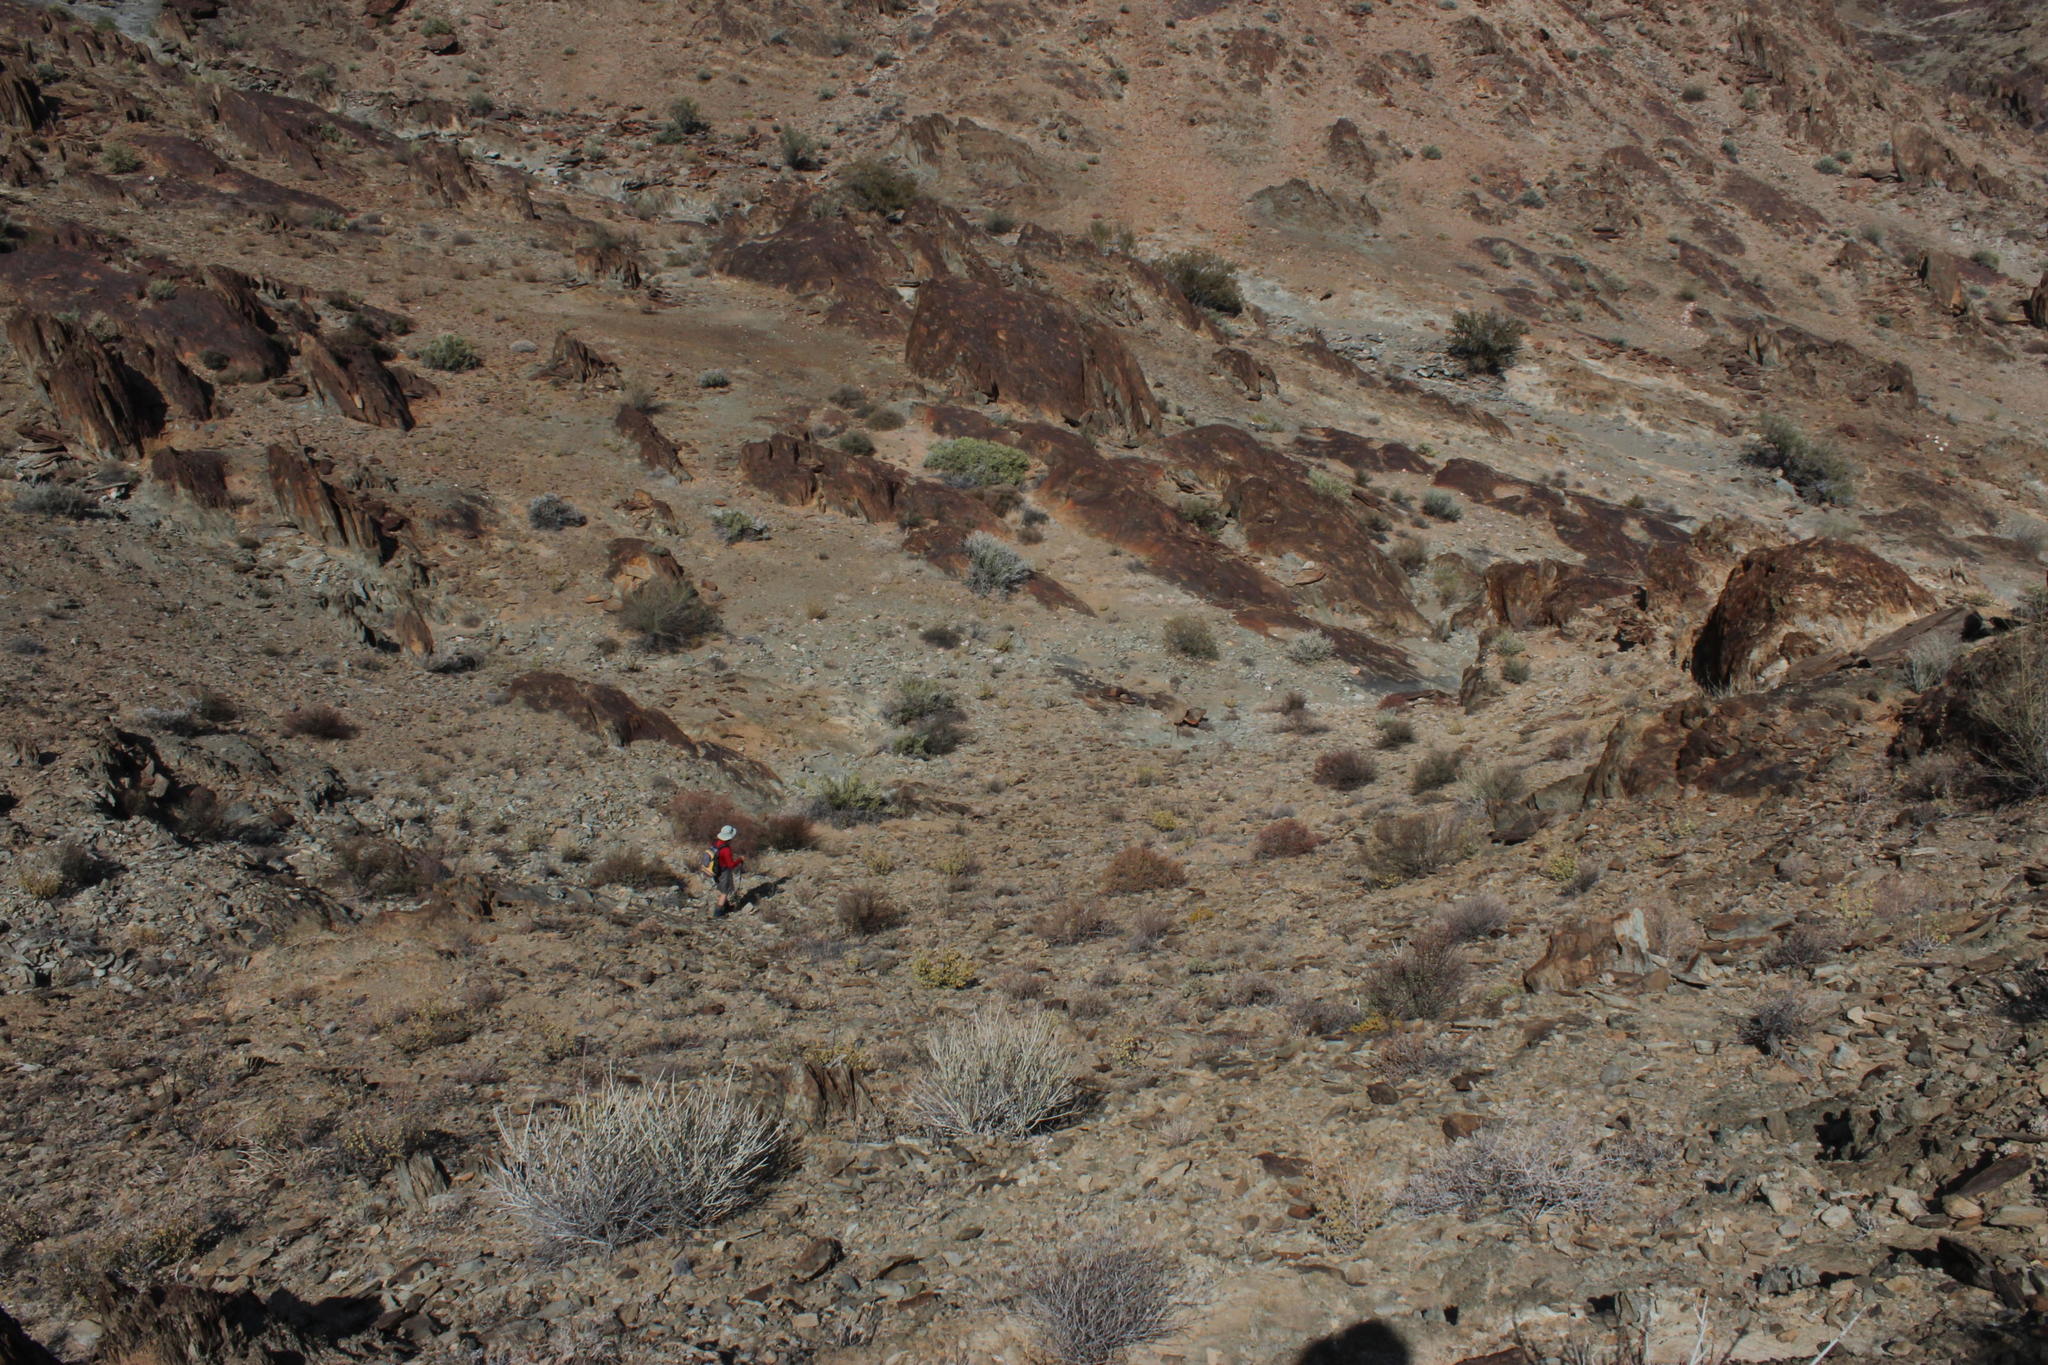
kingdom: Plantae
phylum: Tracheophyta
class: Magnoliopsida
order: Caryophyllales
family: Didiereaceae
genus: Portulacaria
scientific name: Portulacaria namaquensis
